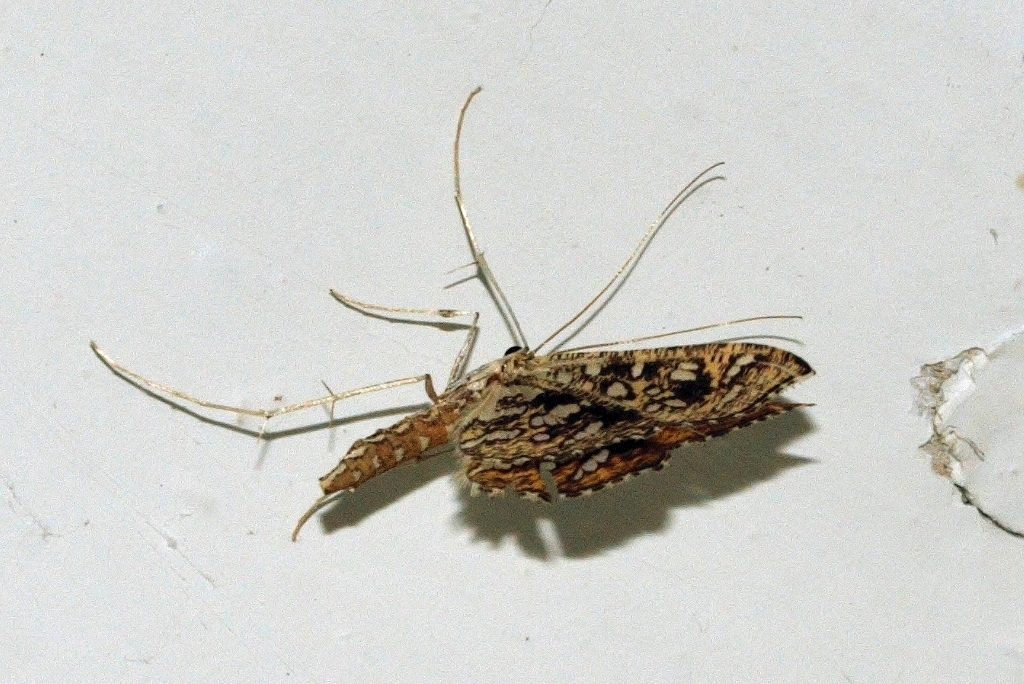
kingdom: Animalia
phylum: Arthropoda
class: Insecta
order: Lepidoptera
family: Crambidae
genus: Nausinoe
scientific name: Nausinoe geometralis
